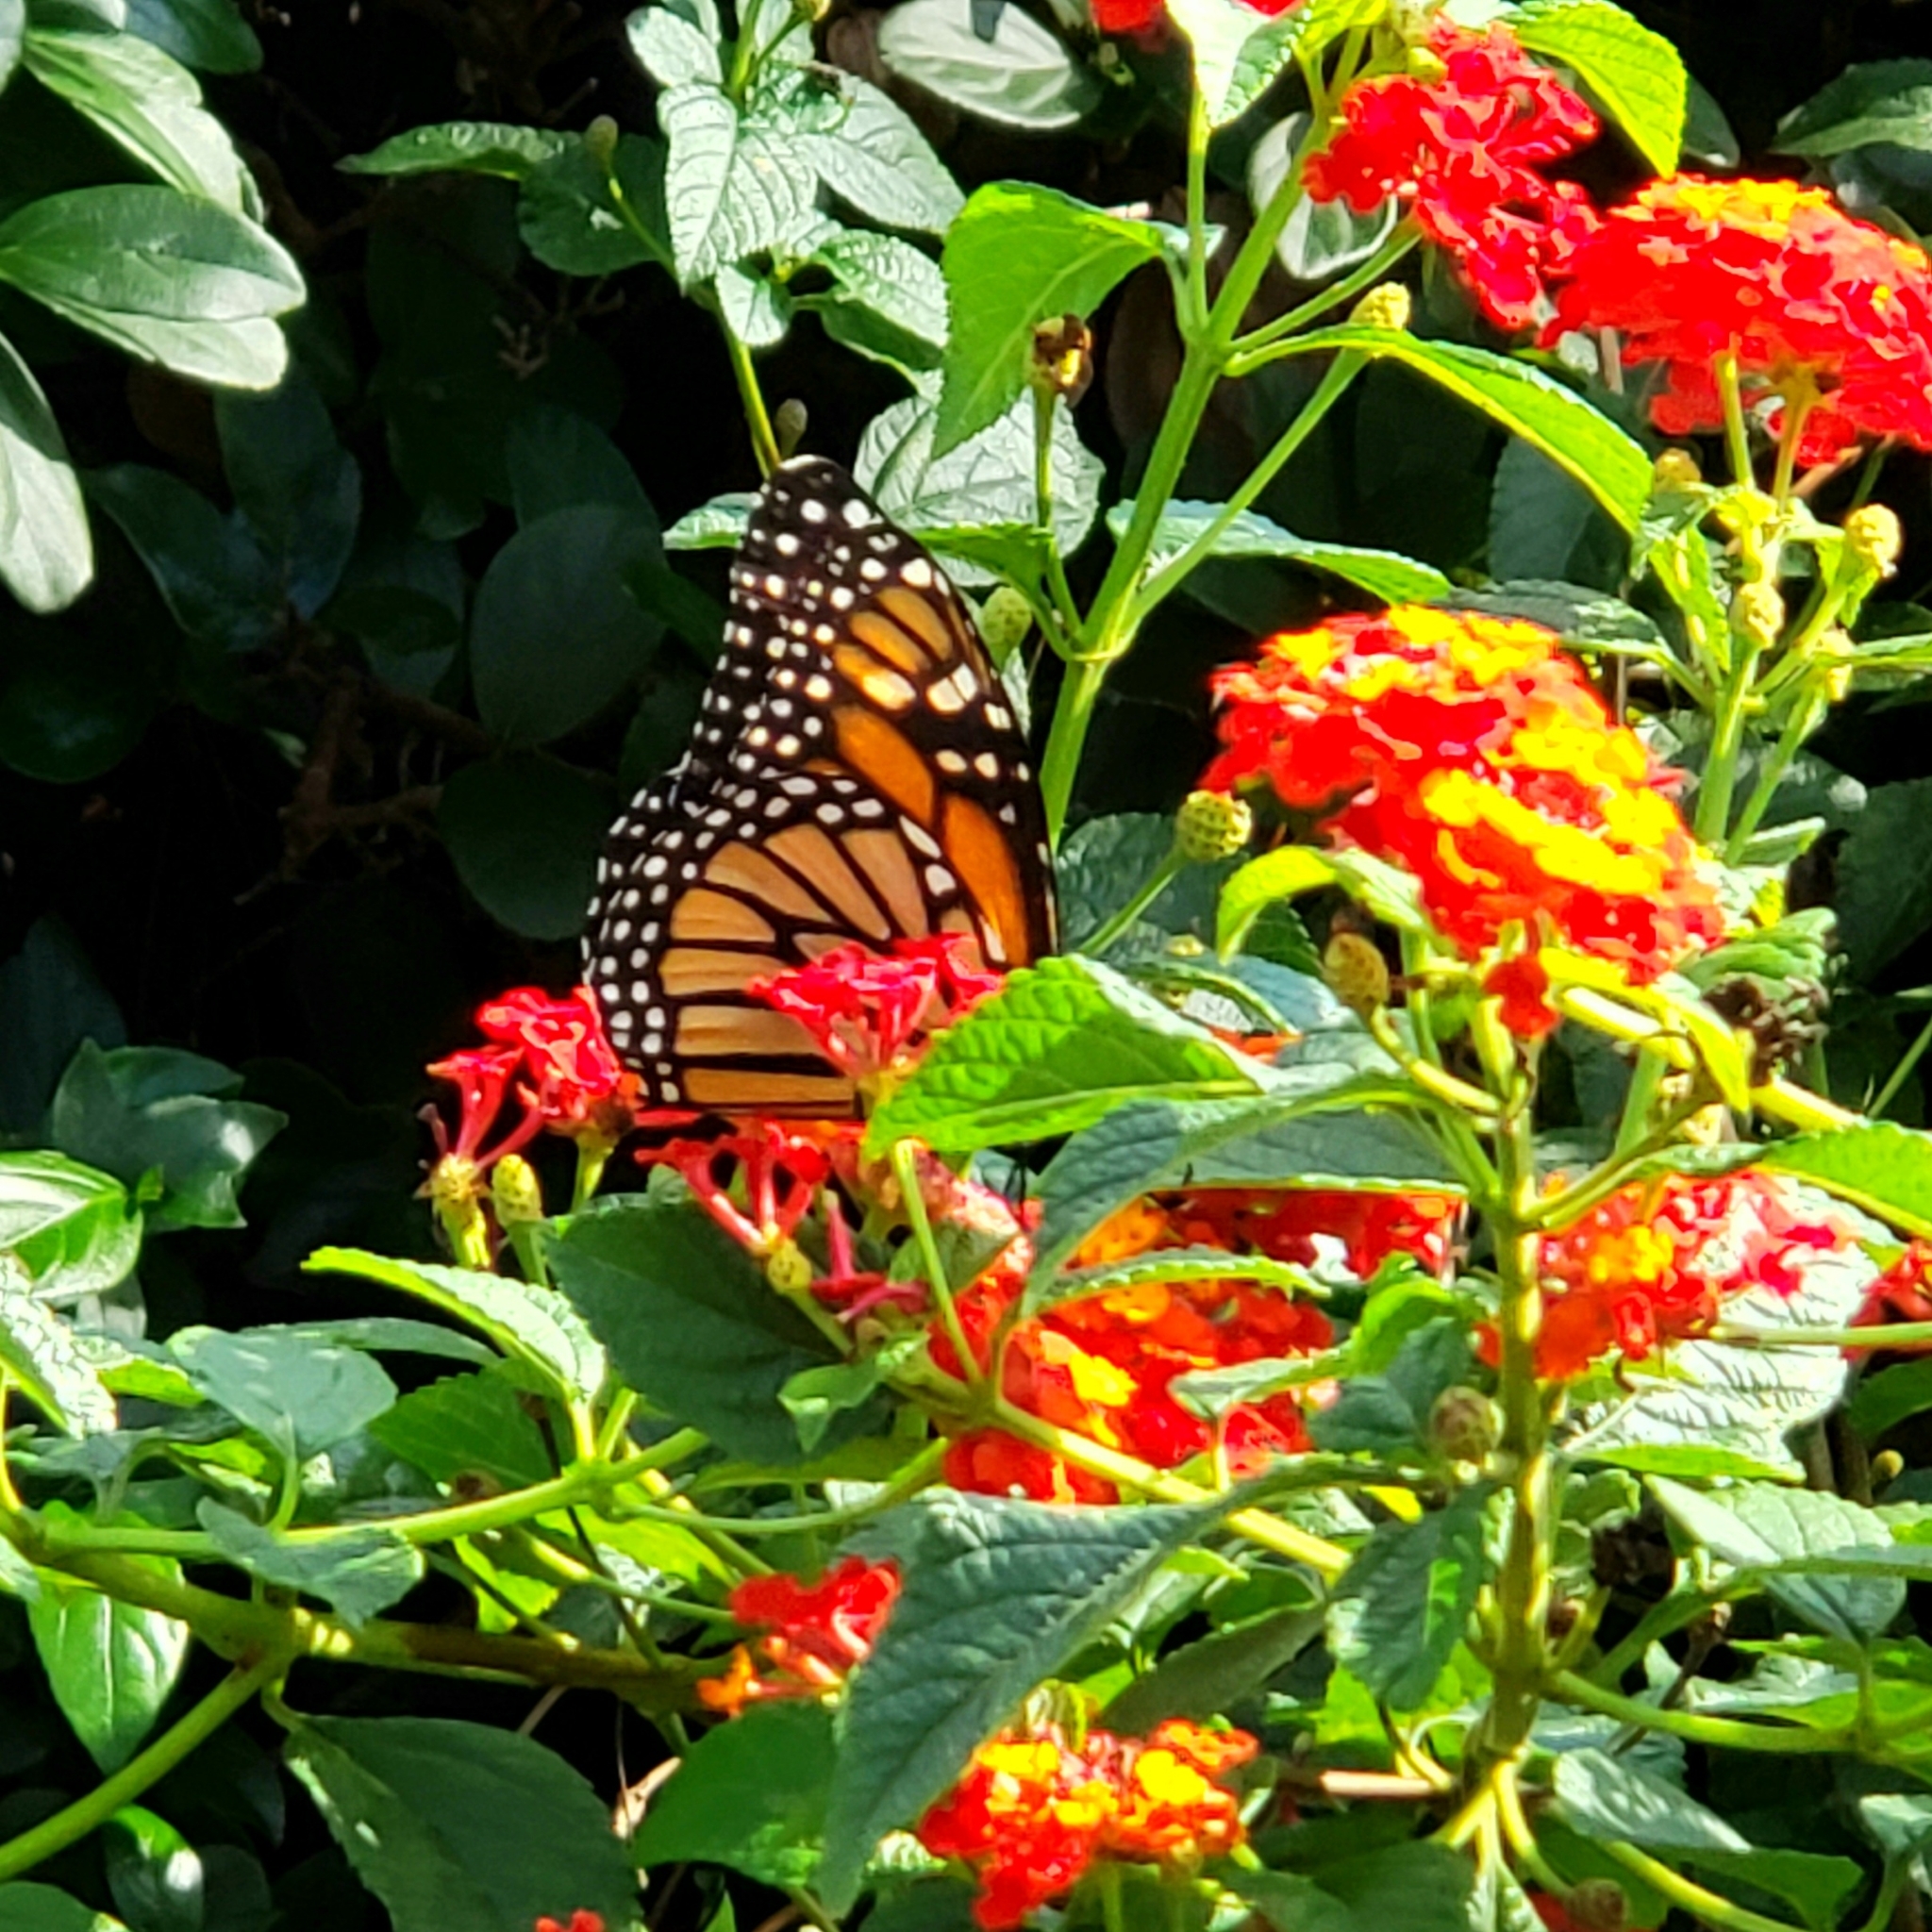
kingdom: Animalia
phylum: Arthropoda
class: Insecta
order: Lepidoptera
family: Nymphalidae
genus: Danaus
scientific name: Danaus plexippus
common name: Monarch
